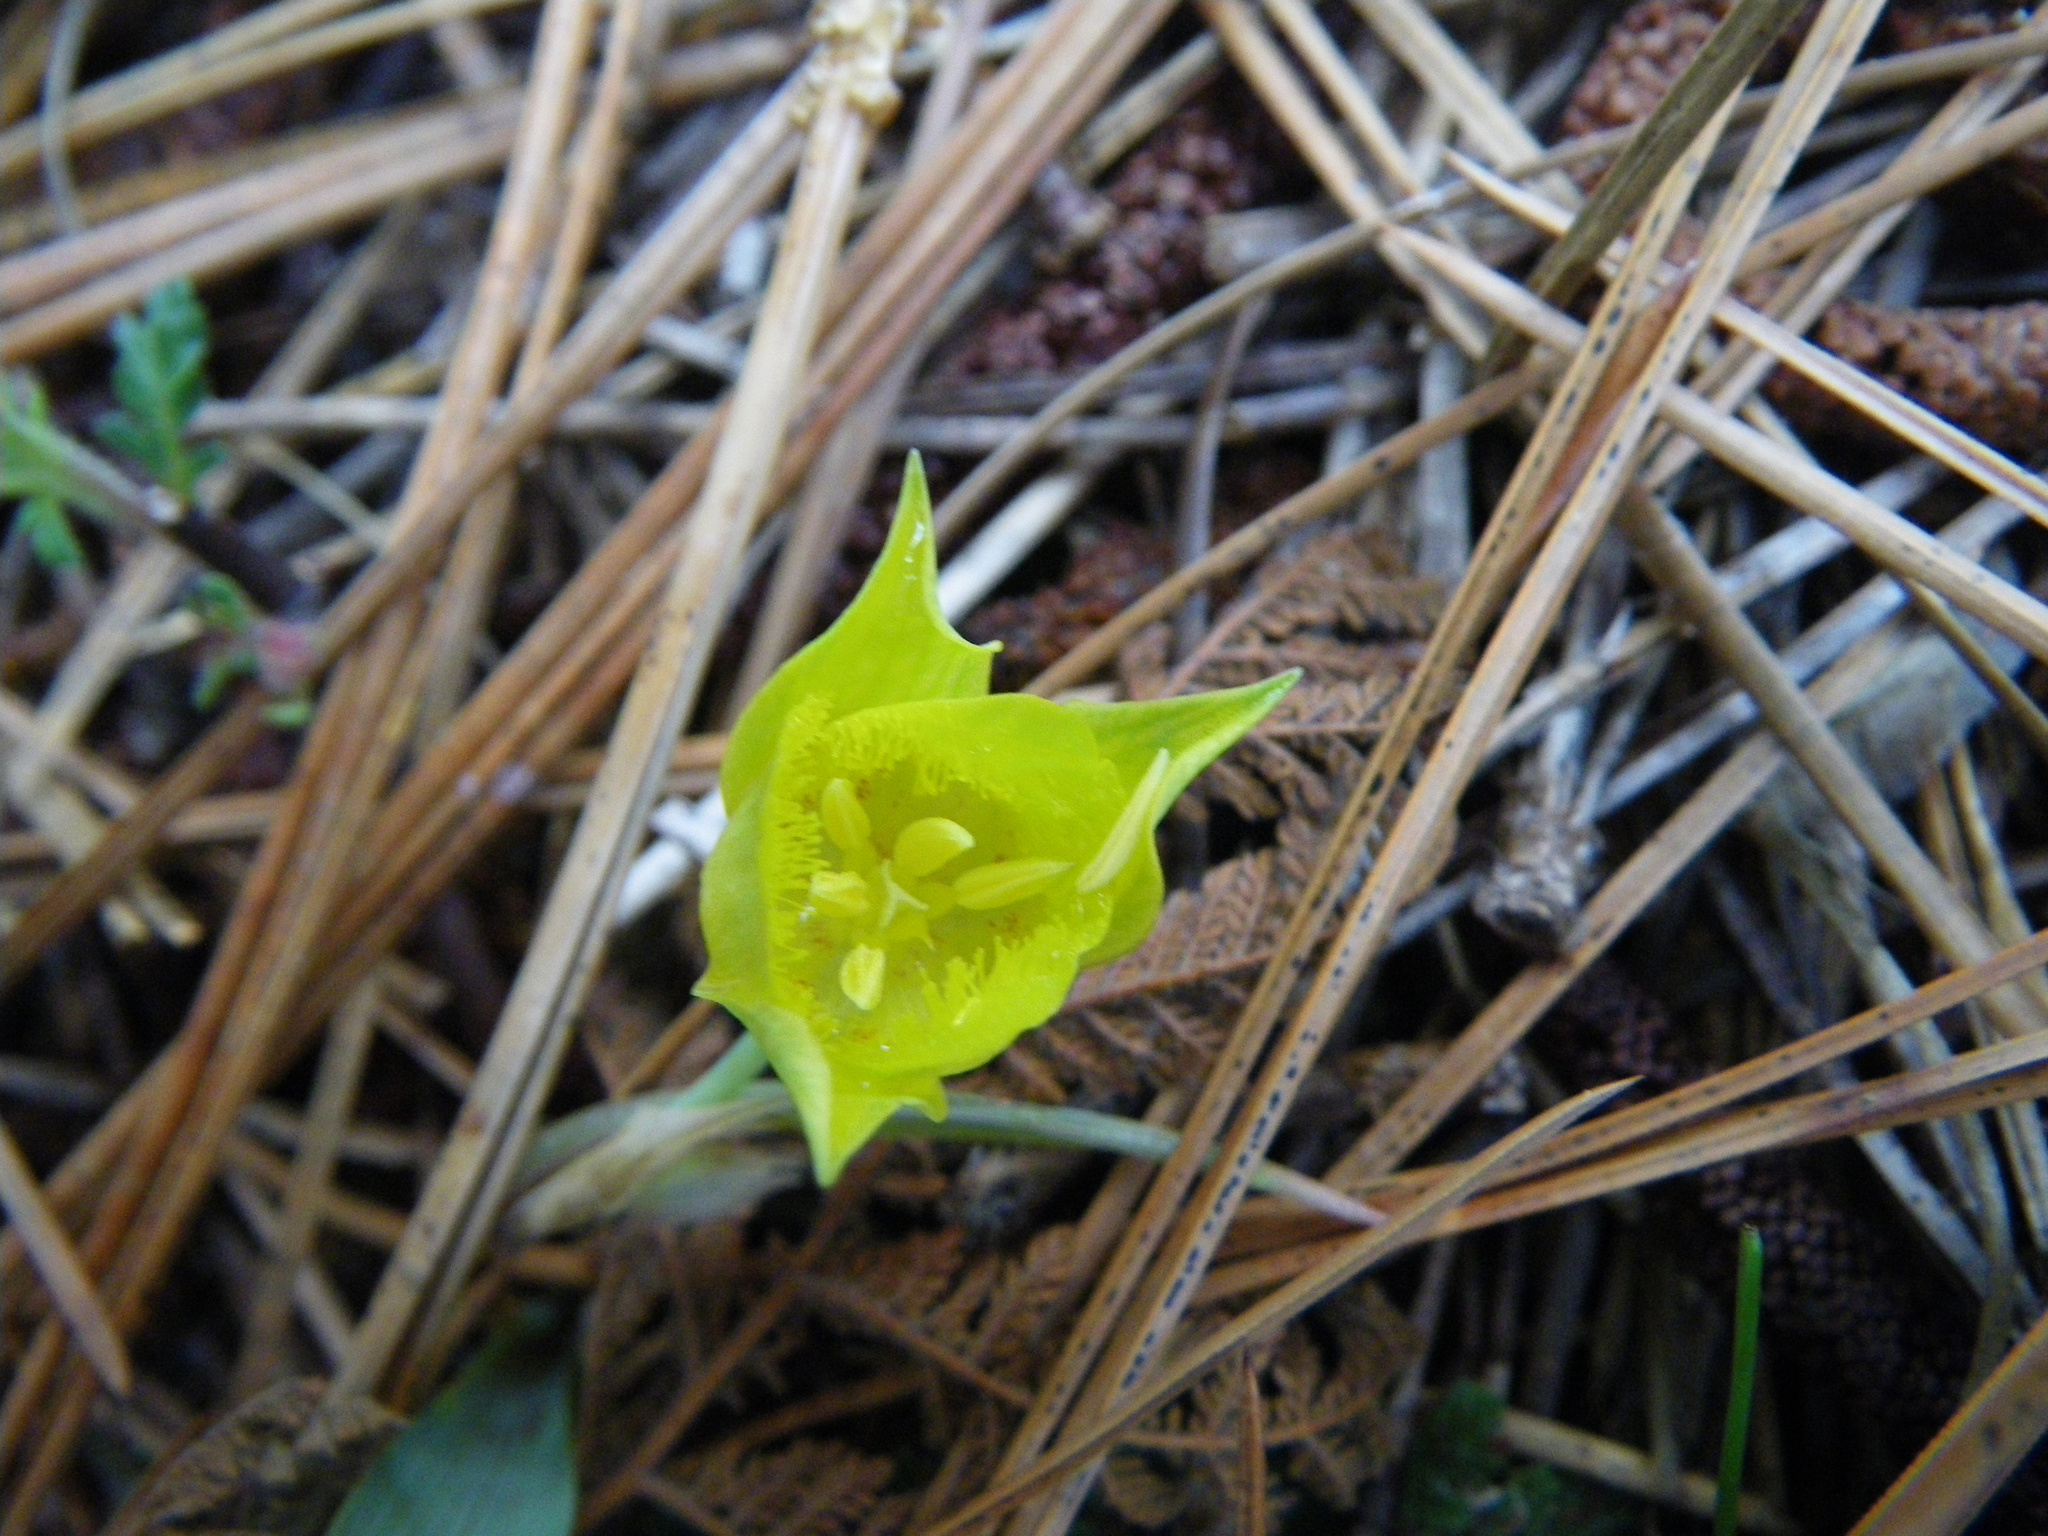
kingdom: Plantae
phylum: Tracheophyta
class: Liliopsida
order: Liliales
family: Liliaceae
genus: Calochortus
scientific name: Calochortus monophyllus
